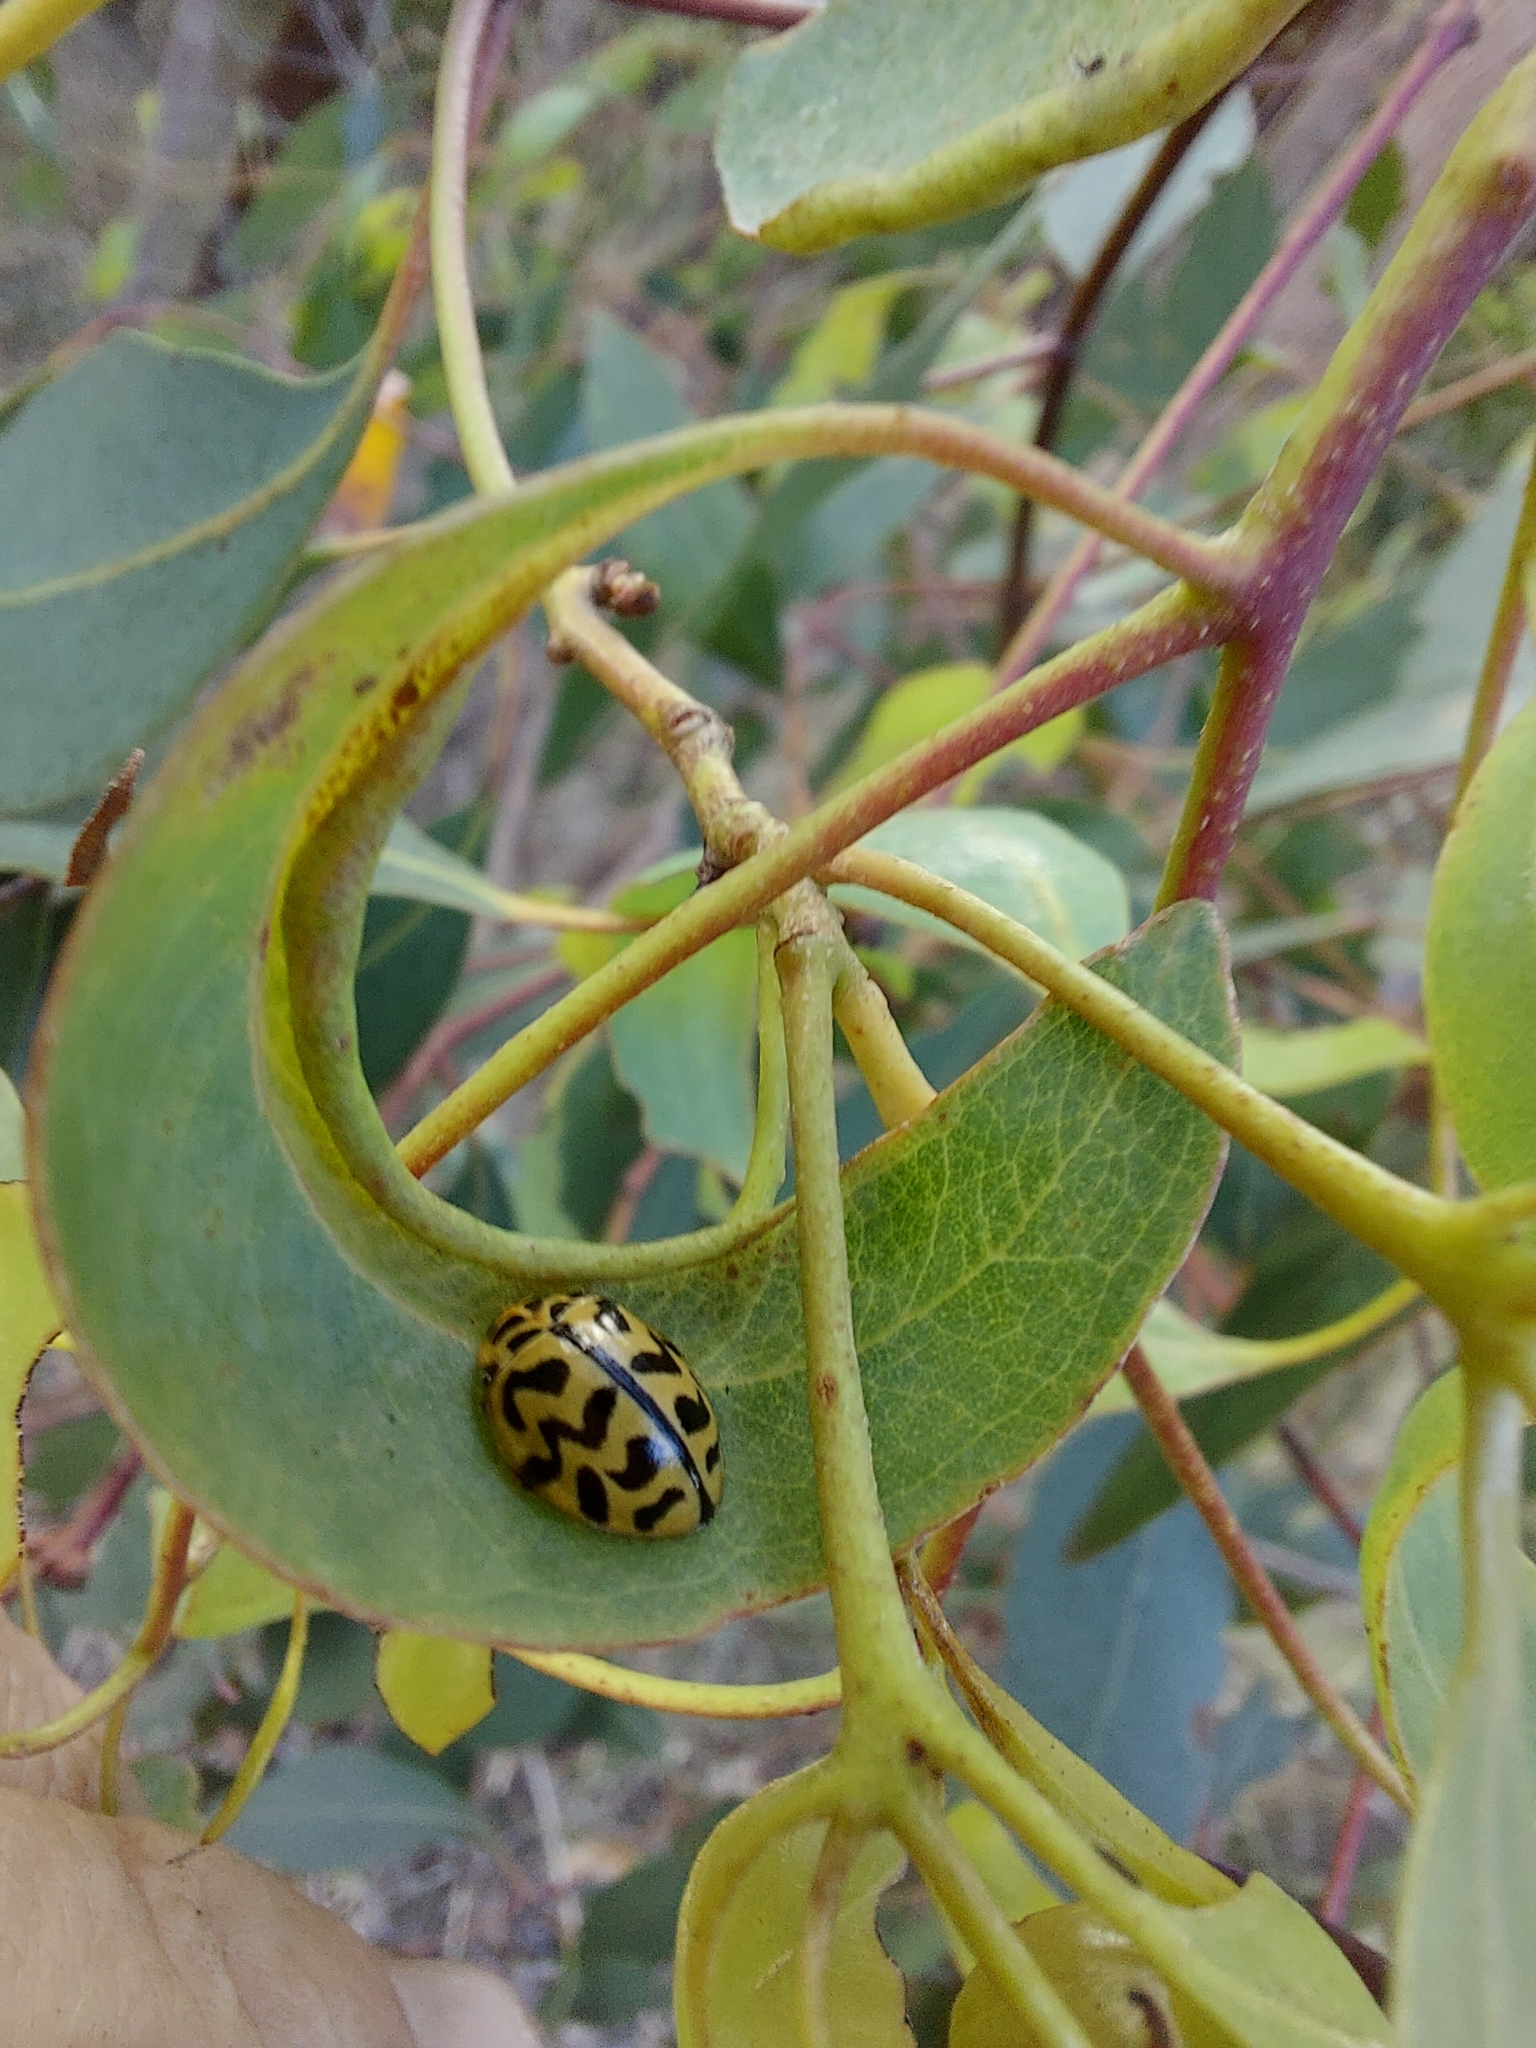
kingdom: Animalia
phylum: Arthropoda
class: Insecta
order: Coleoptera
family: Coccinellidae
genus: Cleobora
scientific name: Cleobora
